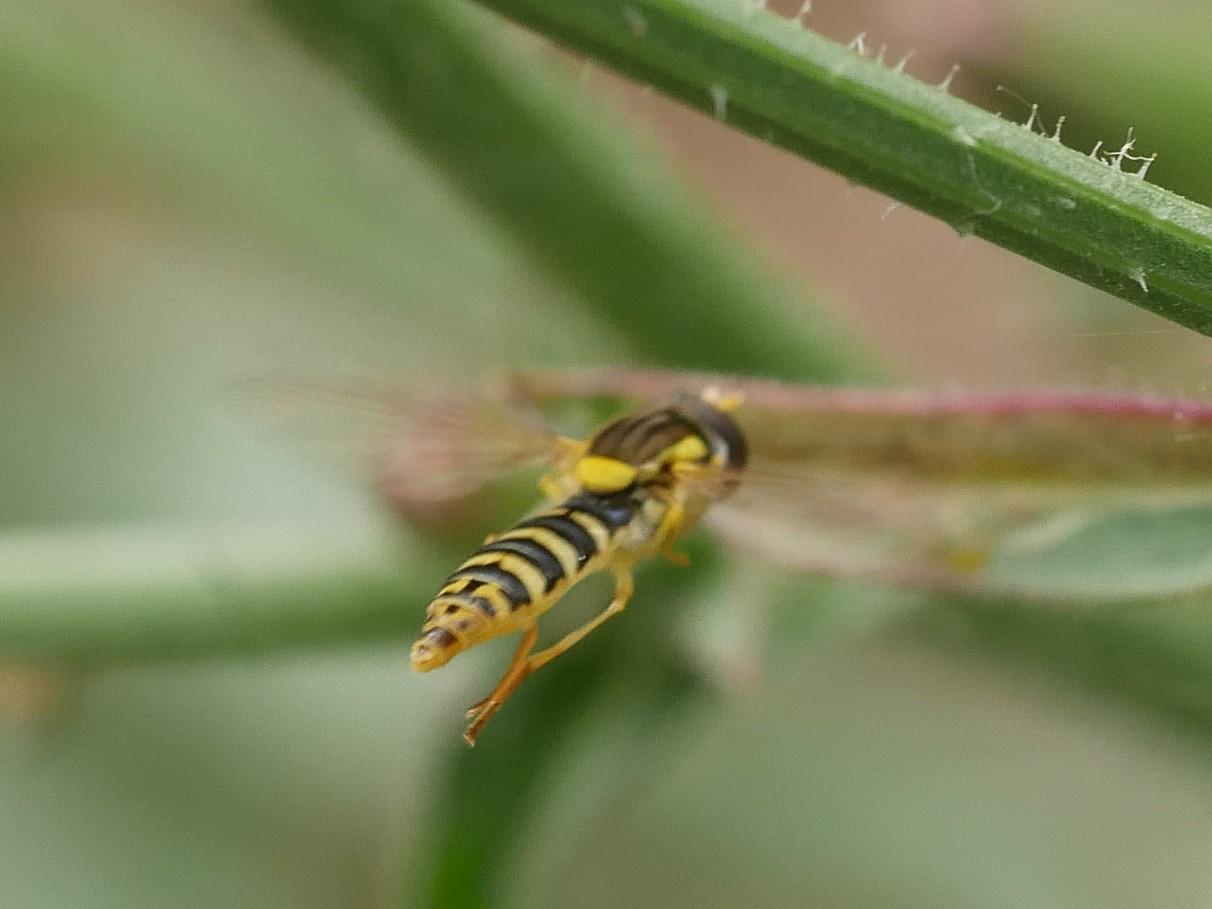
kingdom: Animalia
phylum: Arthropoda
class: Insecta
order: Diptera
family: Syrphidae
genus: Sphaerophoria
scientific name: Sphaerophoria
